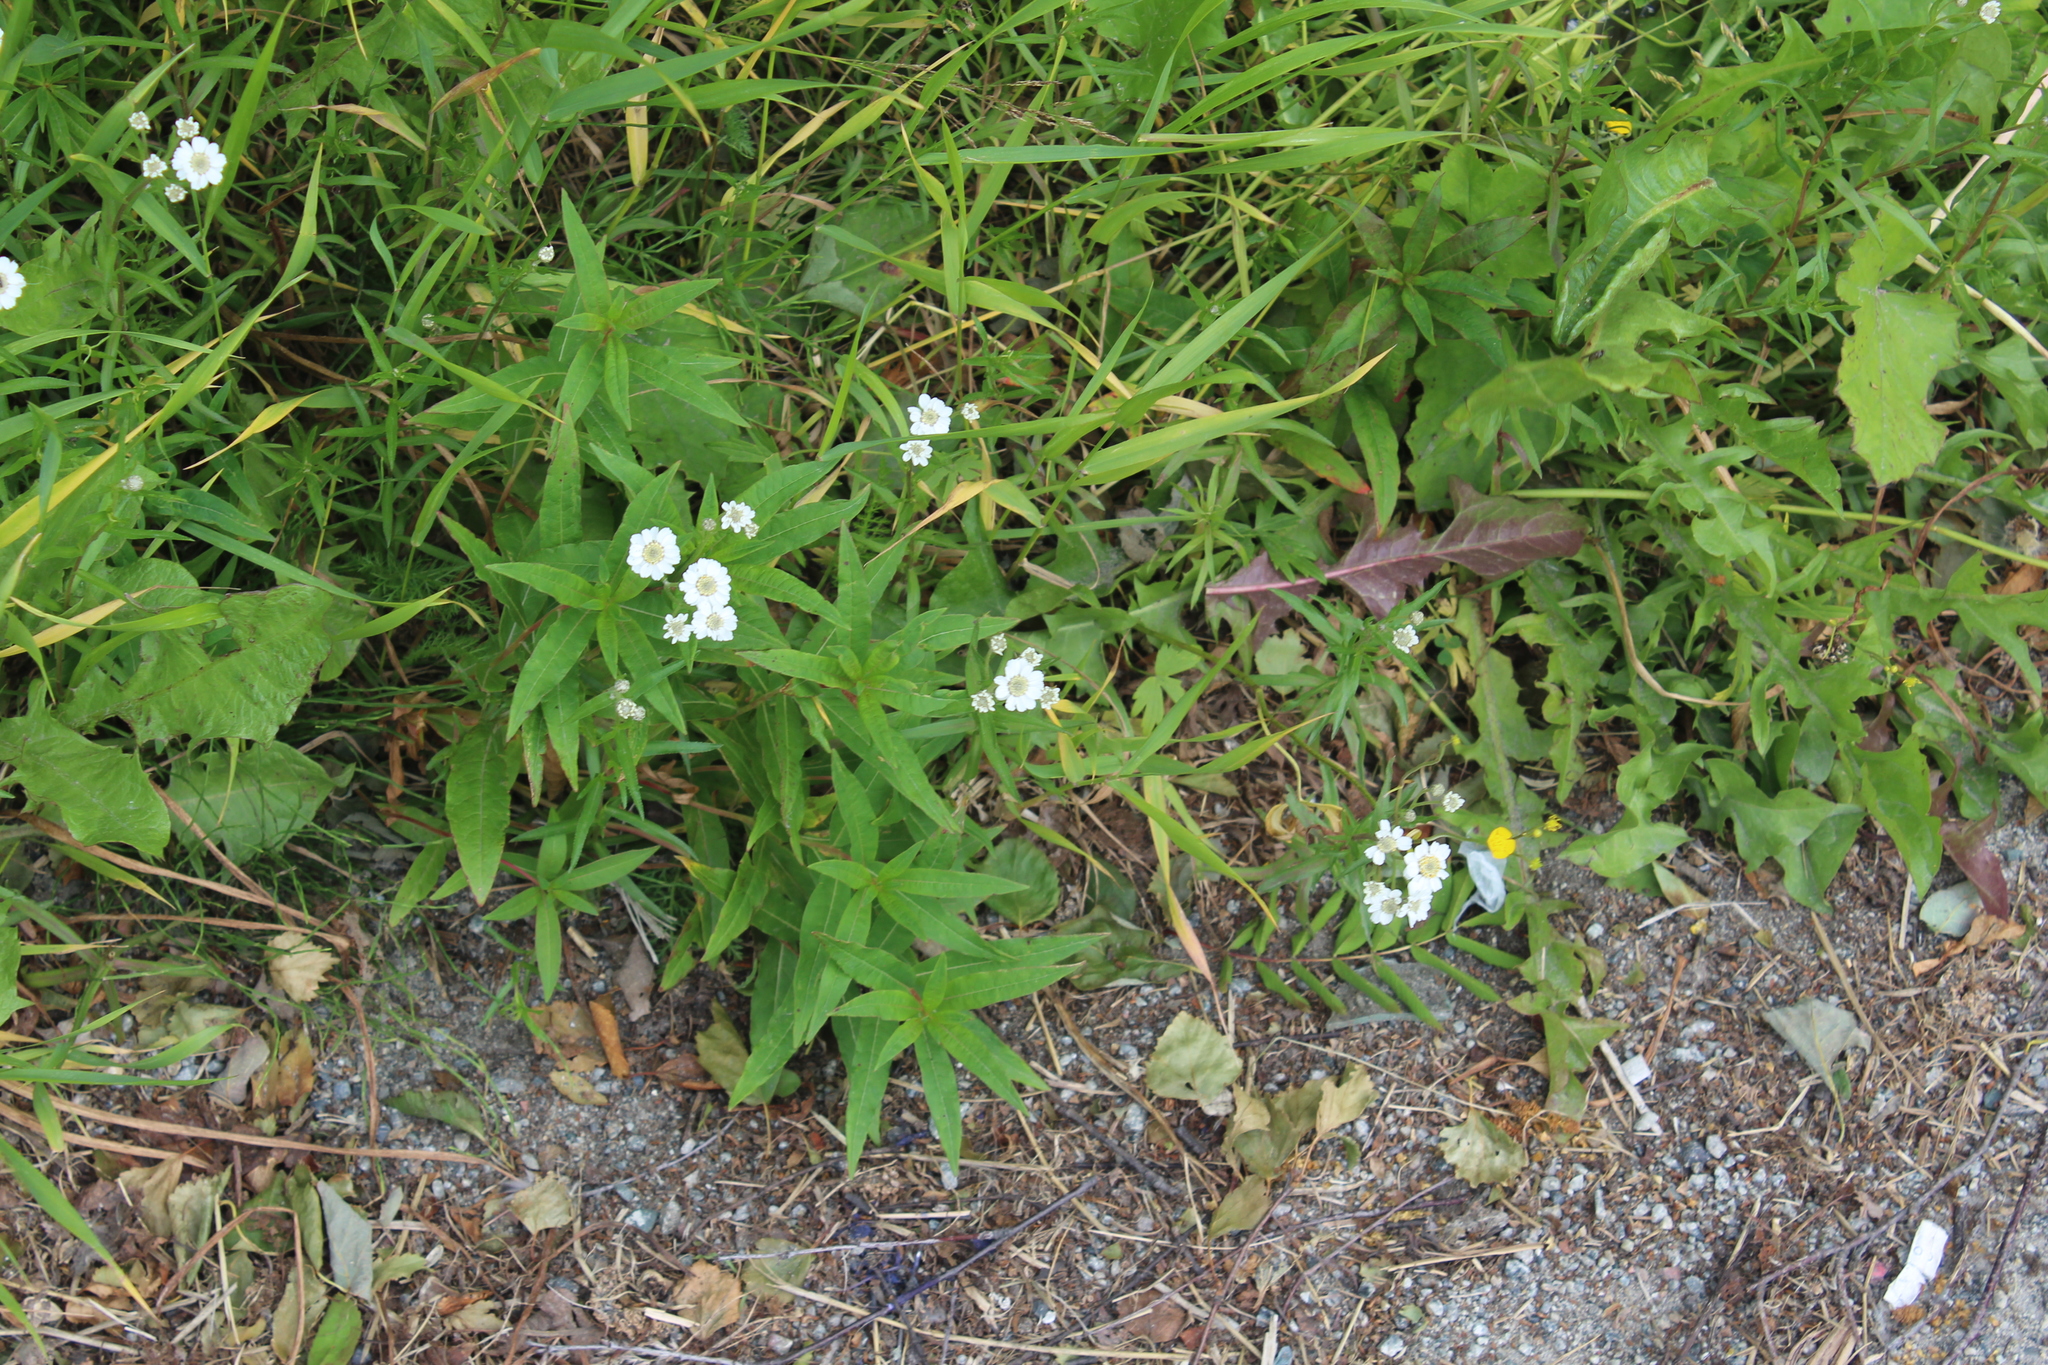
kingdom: Plantae
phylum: Tracheophyta
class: Magnoliopsida
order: Asterales
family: Asteraceae
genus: Achillea
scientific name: Achillea ptarmica
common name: Sneezeweed
